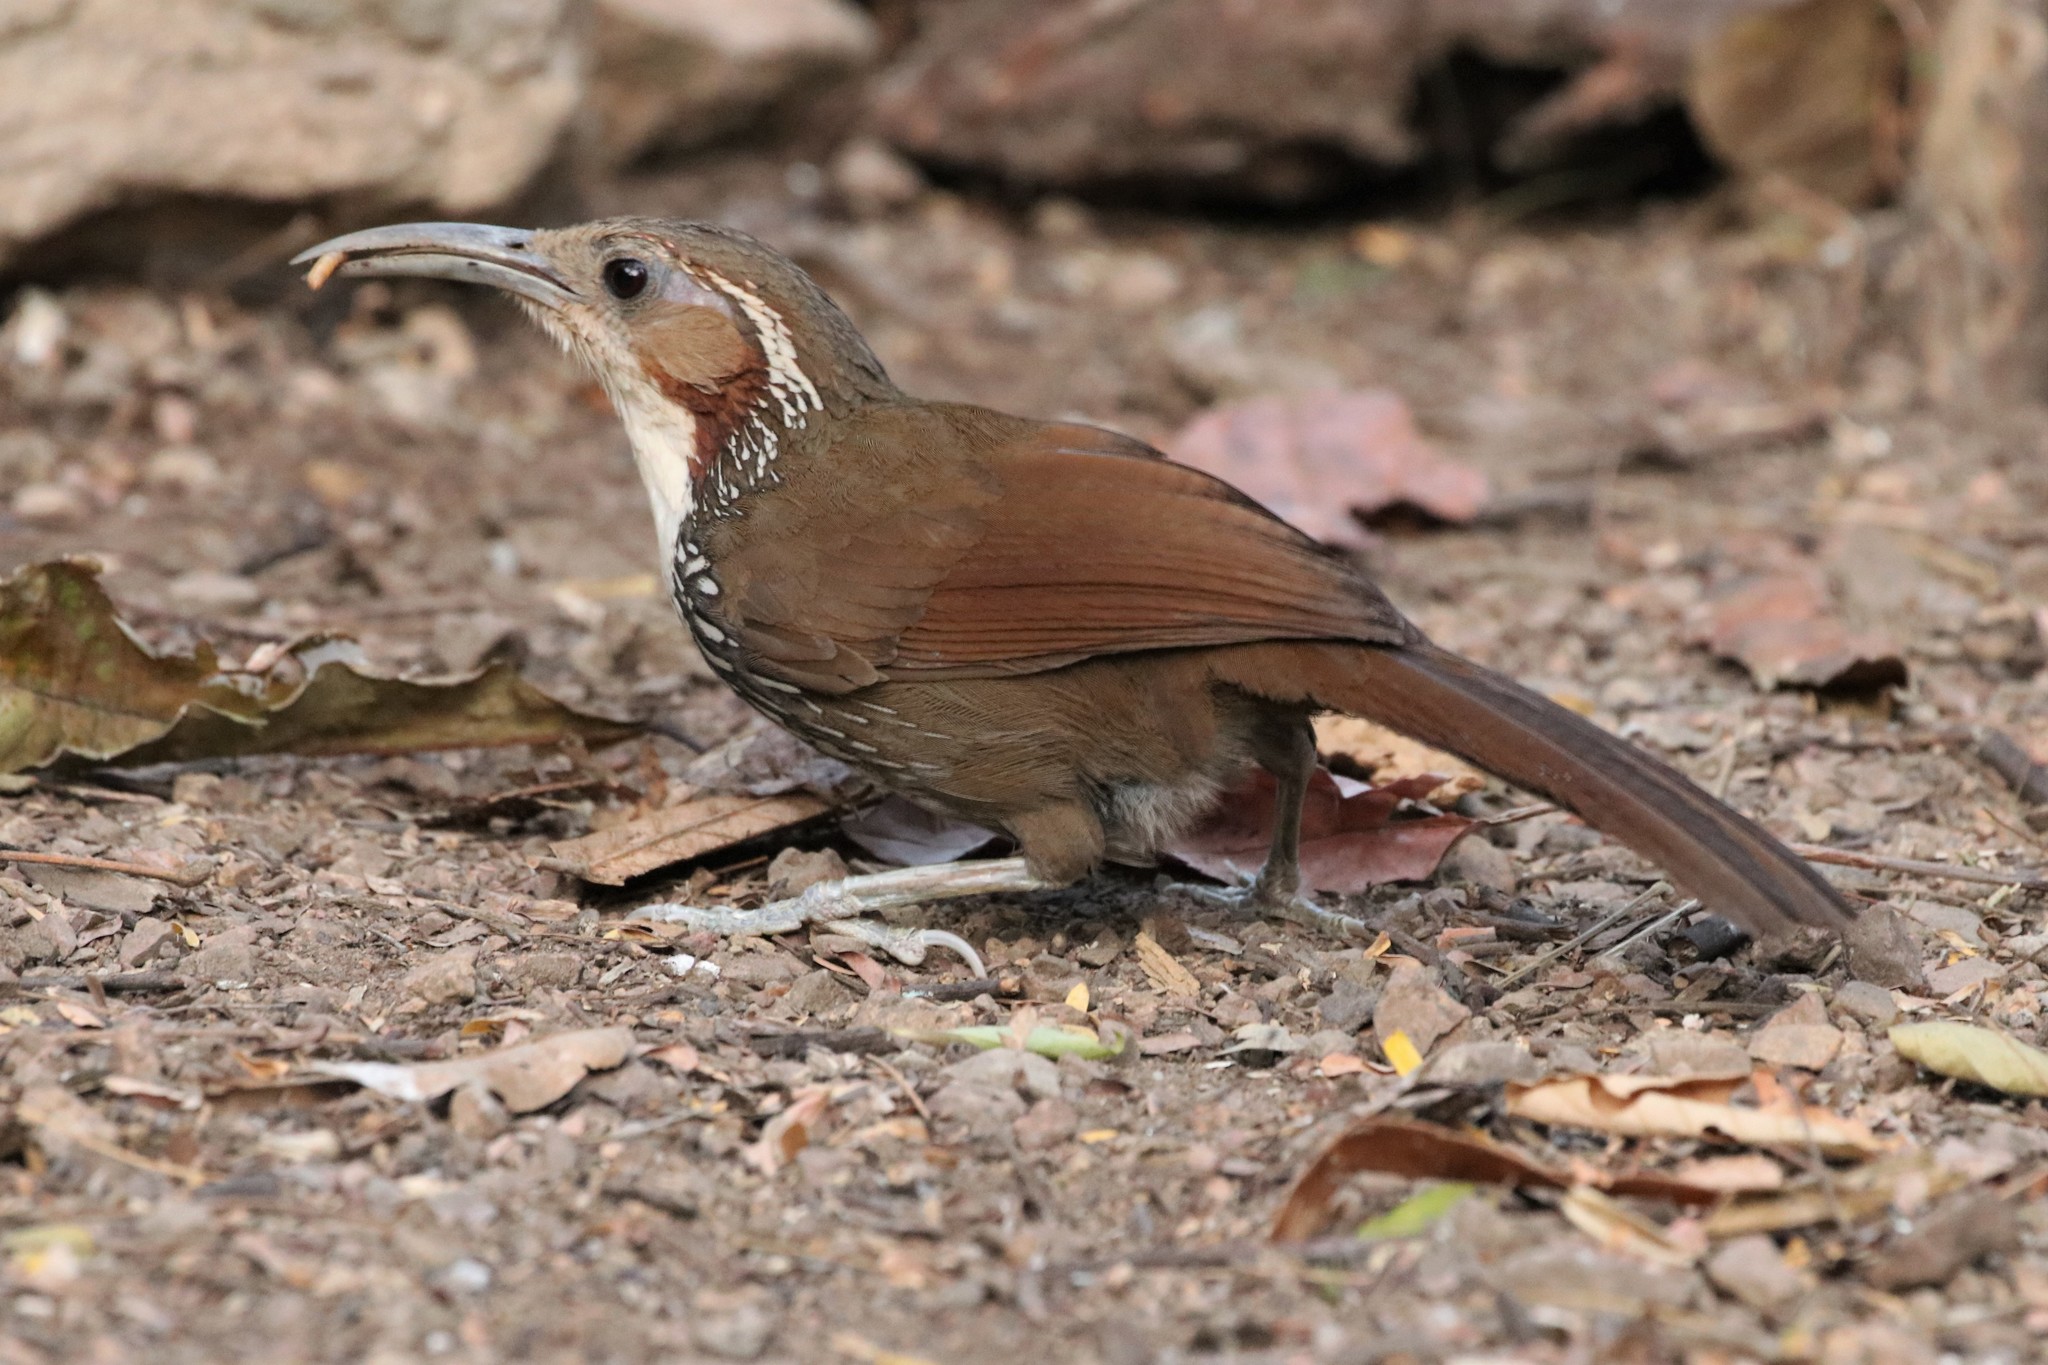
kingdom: Animalia
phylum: Chordata
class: Aves
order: Passeriformes
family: Timaliidae
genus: Pomatorhinus
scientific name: Pomatorhinus hypoleucos
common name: Large scimitar babbler
